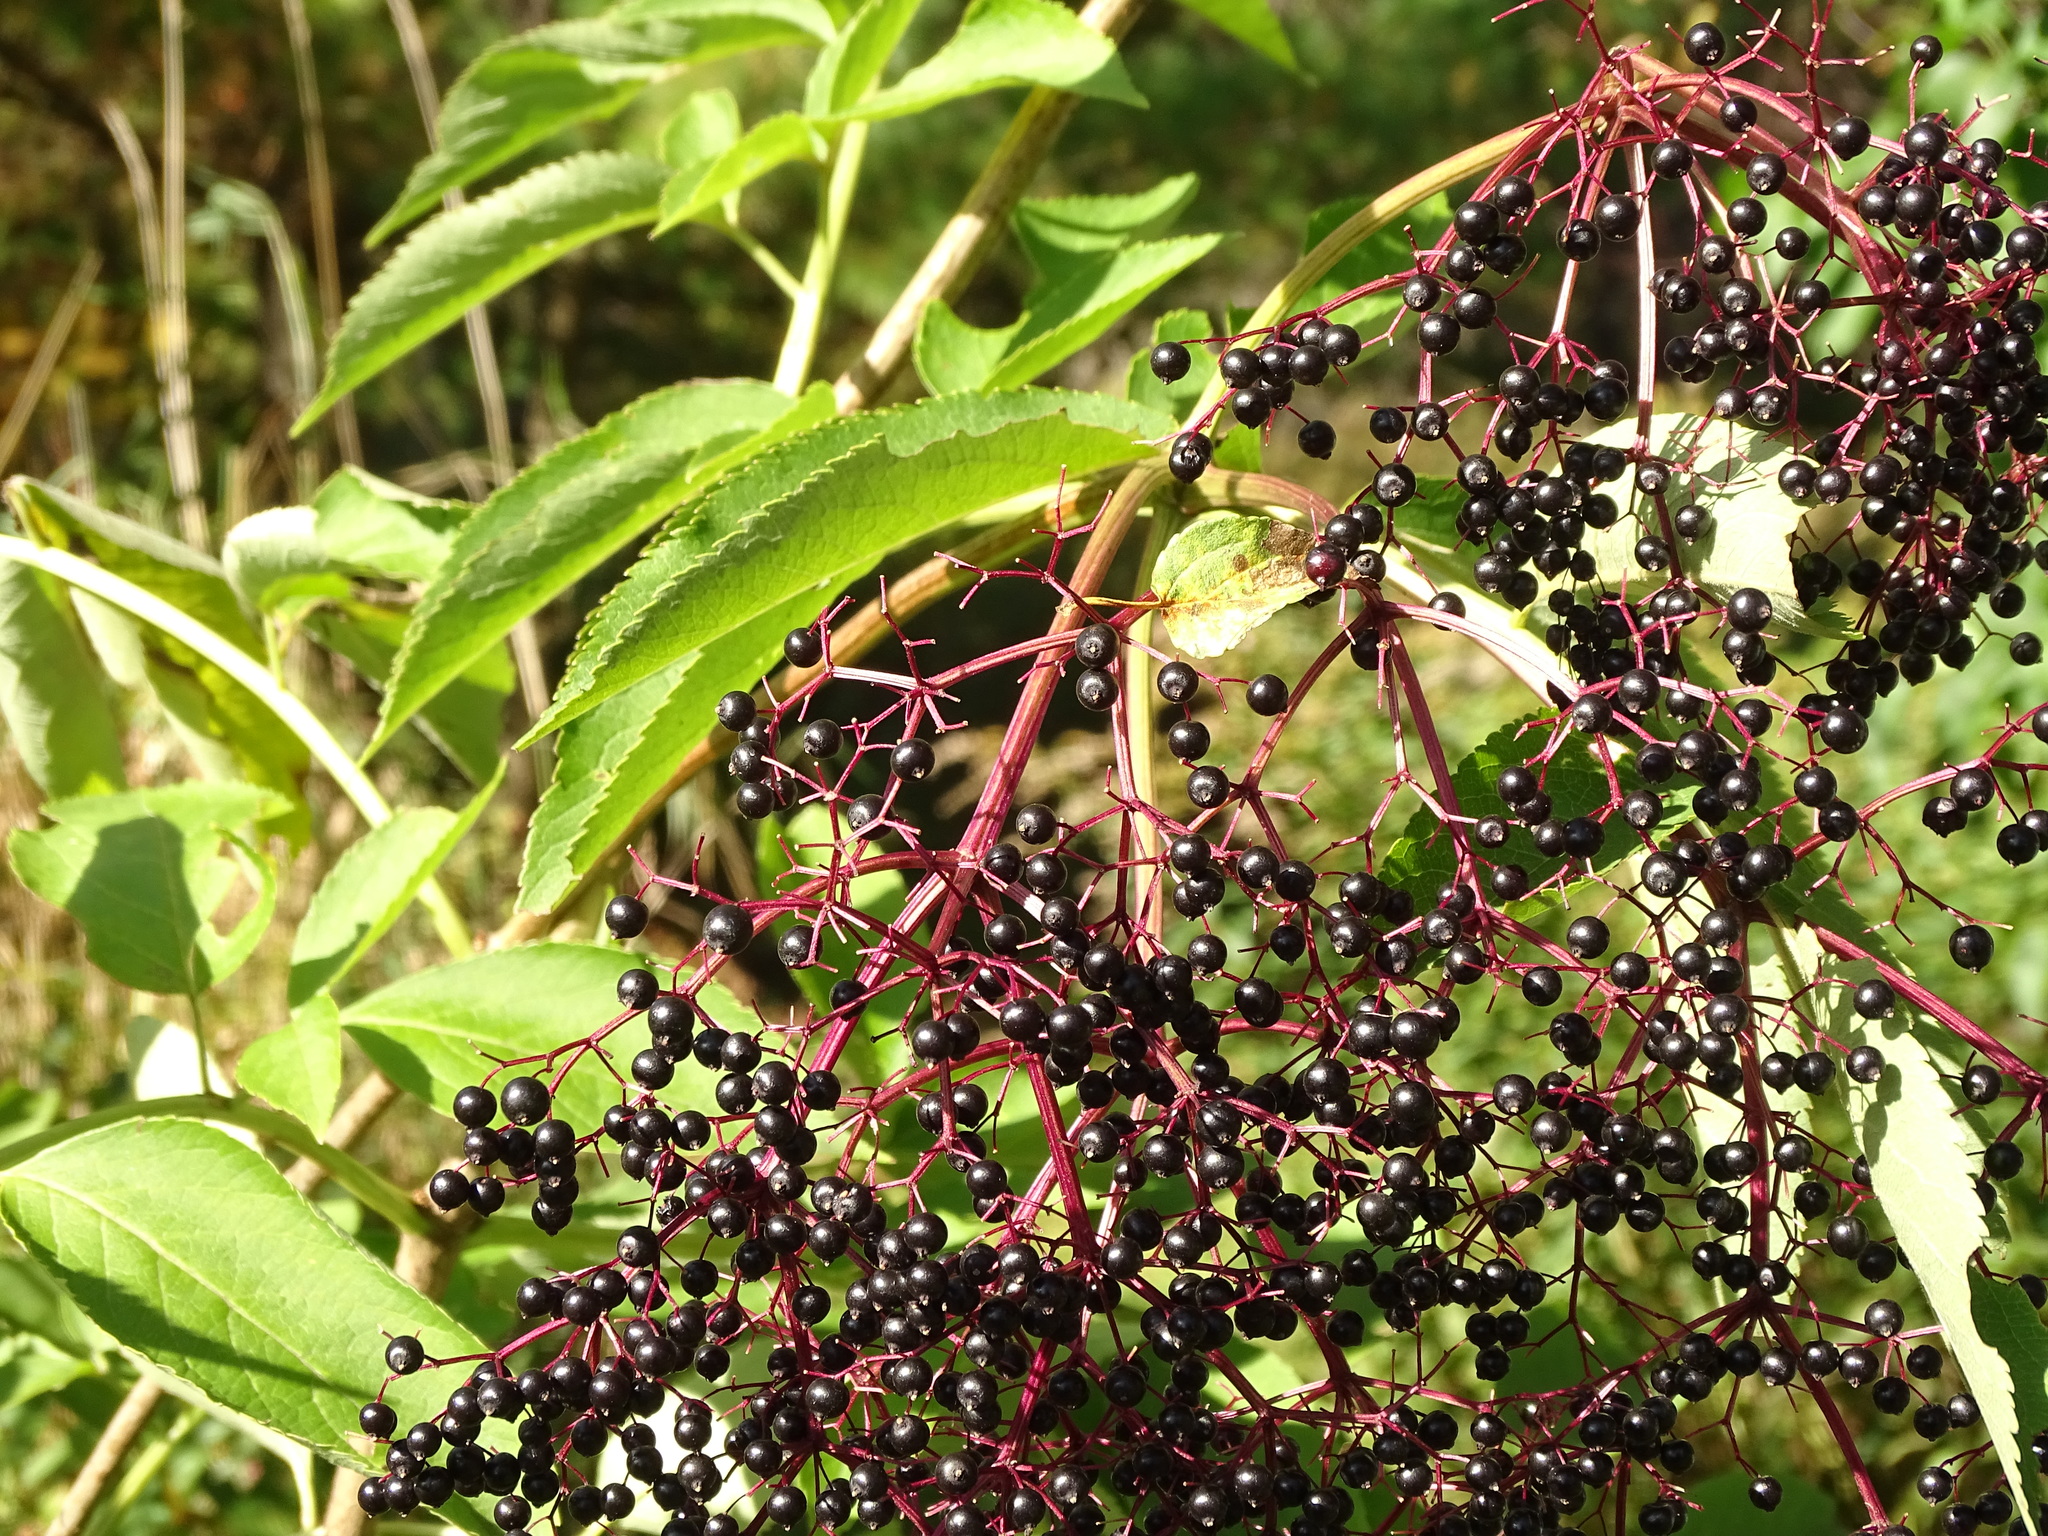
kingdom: Plantae
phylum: Tracheophyta
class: Magnoliopsida
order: Dipsacales
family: Viburnaceae
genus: Sambucus
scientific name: Sambucus canadensis
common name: American elder
